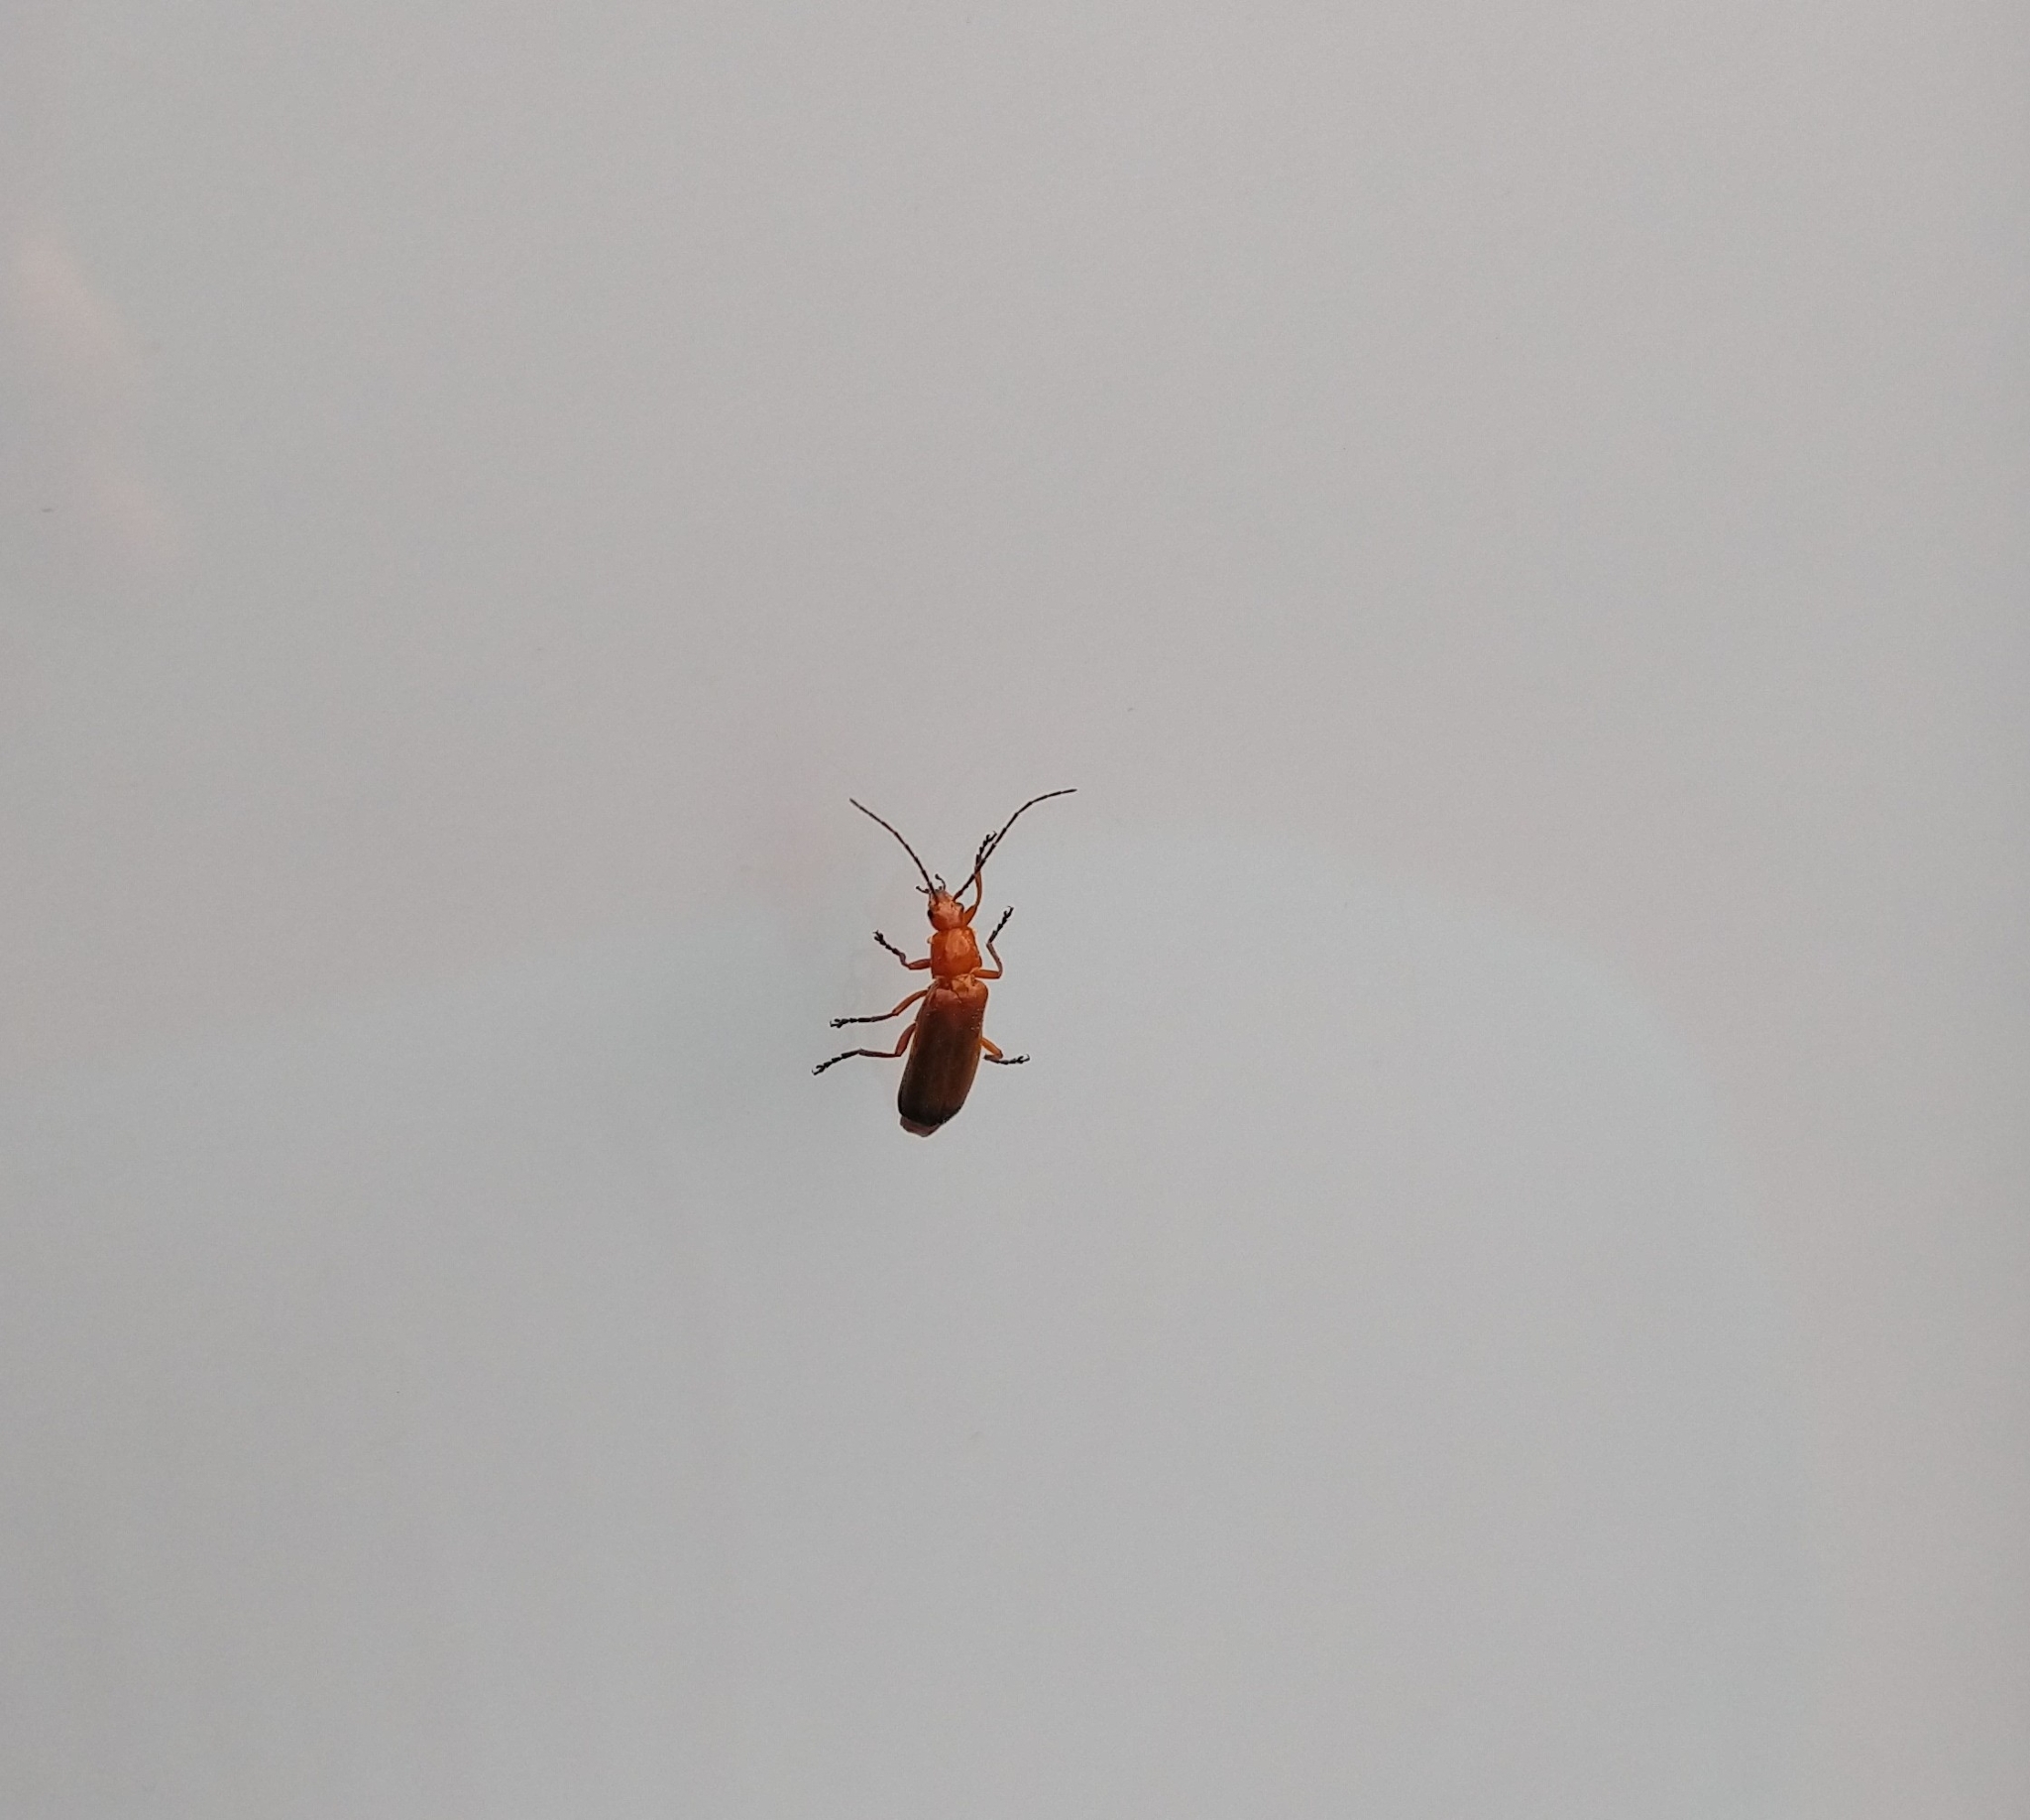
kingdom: Animalia
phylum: Arthropoda
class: Insecta
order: Coleoptera
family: Cantharidae
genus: Rhagonycha
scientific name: Rhagonycha fulva
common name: Common red soldier beetle
